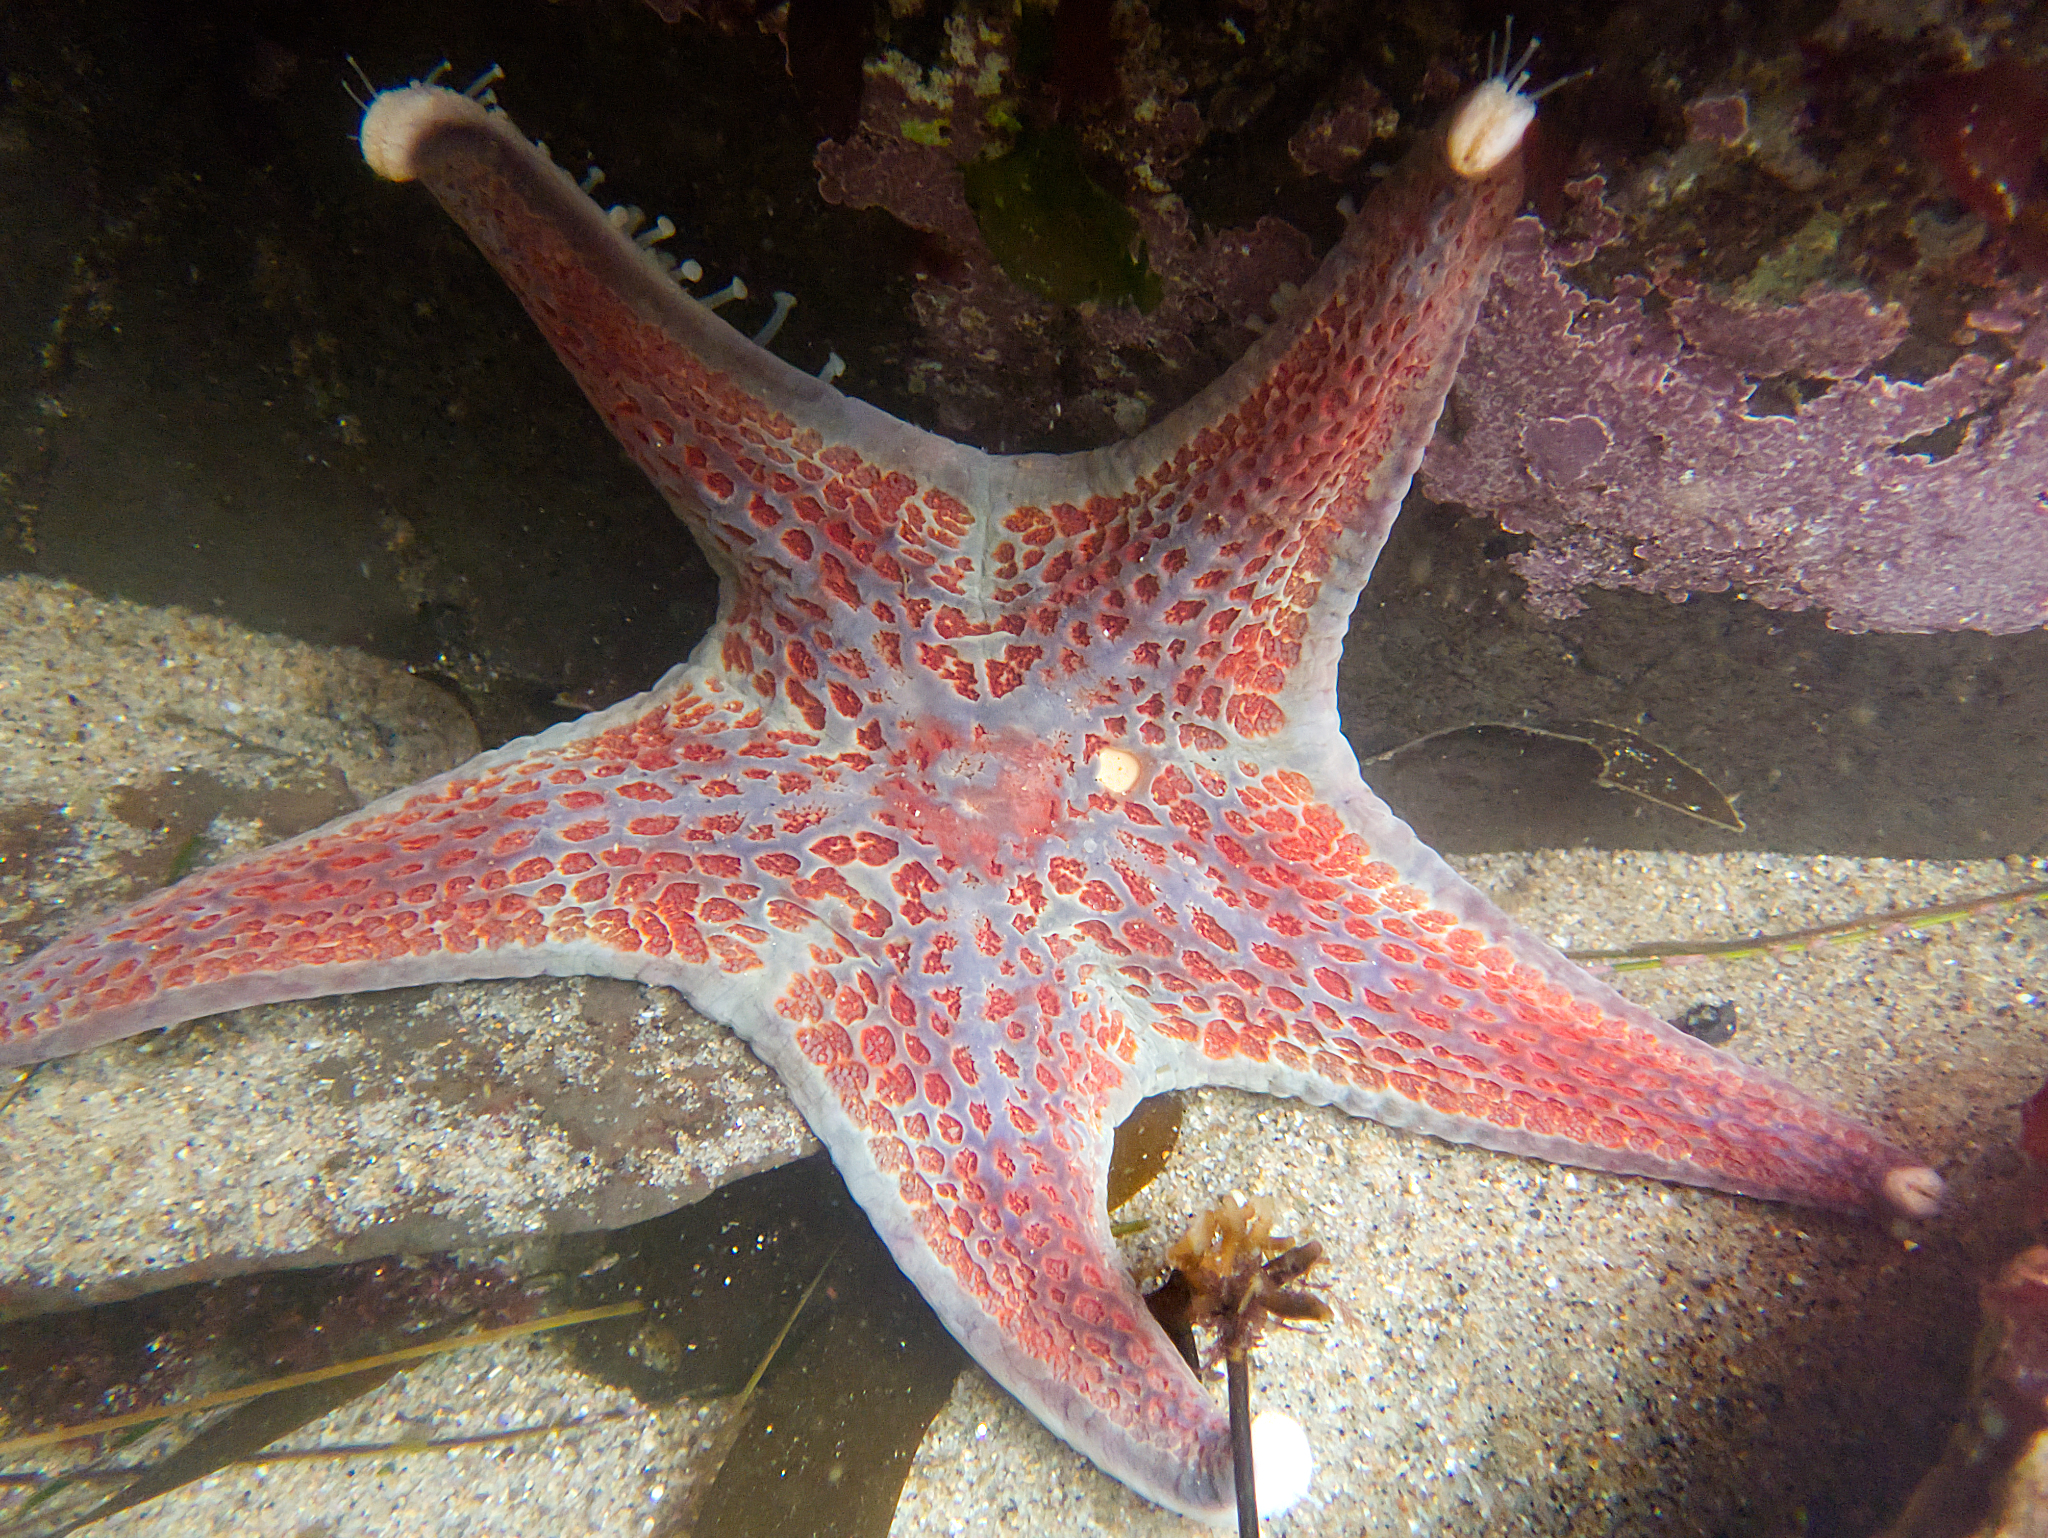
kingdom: Animalia
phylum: Echinodermata
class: Asteroidea
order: Valvatida
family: Asteropseidae
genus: Dermasterias
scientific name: Dermasterias imbricata
